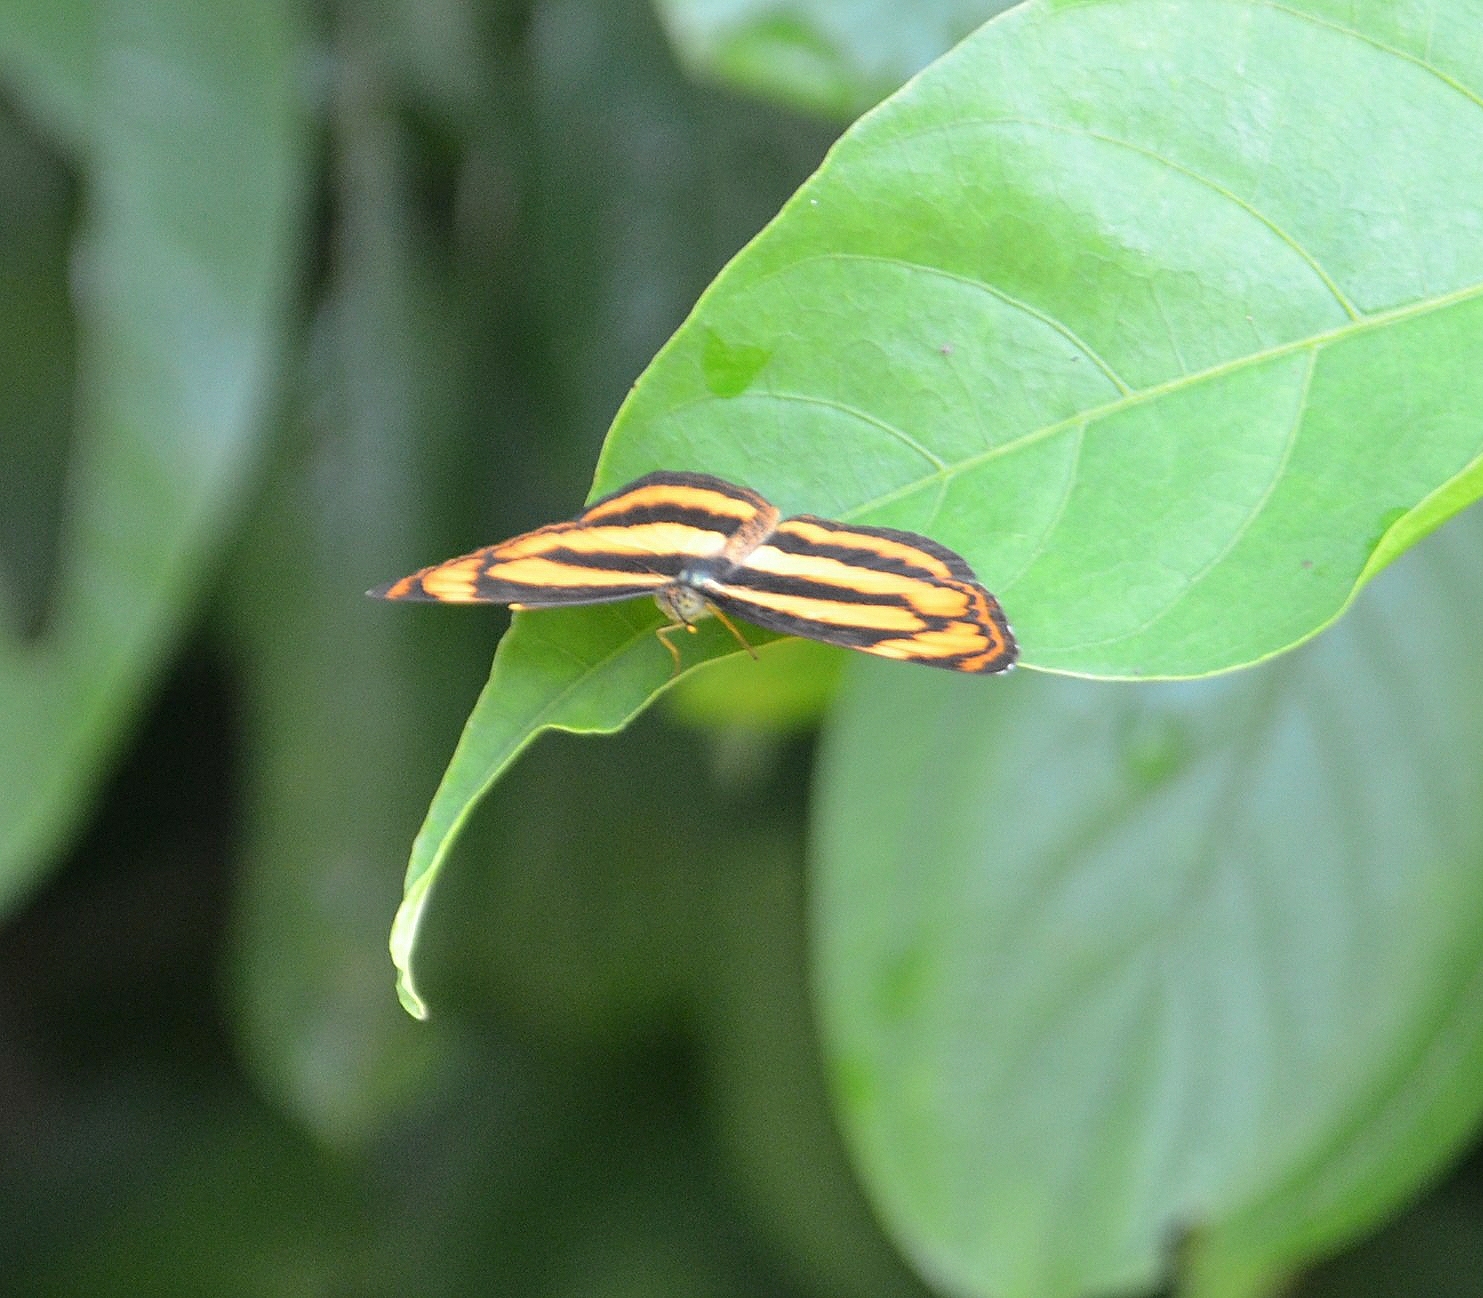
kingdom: Animalia
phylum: Arthropoda
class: Insecta
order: Lepidoptera
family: Nymphalidae
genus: Pantoporia
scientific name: Pantoporia hordonia
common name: Common lascar
